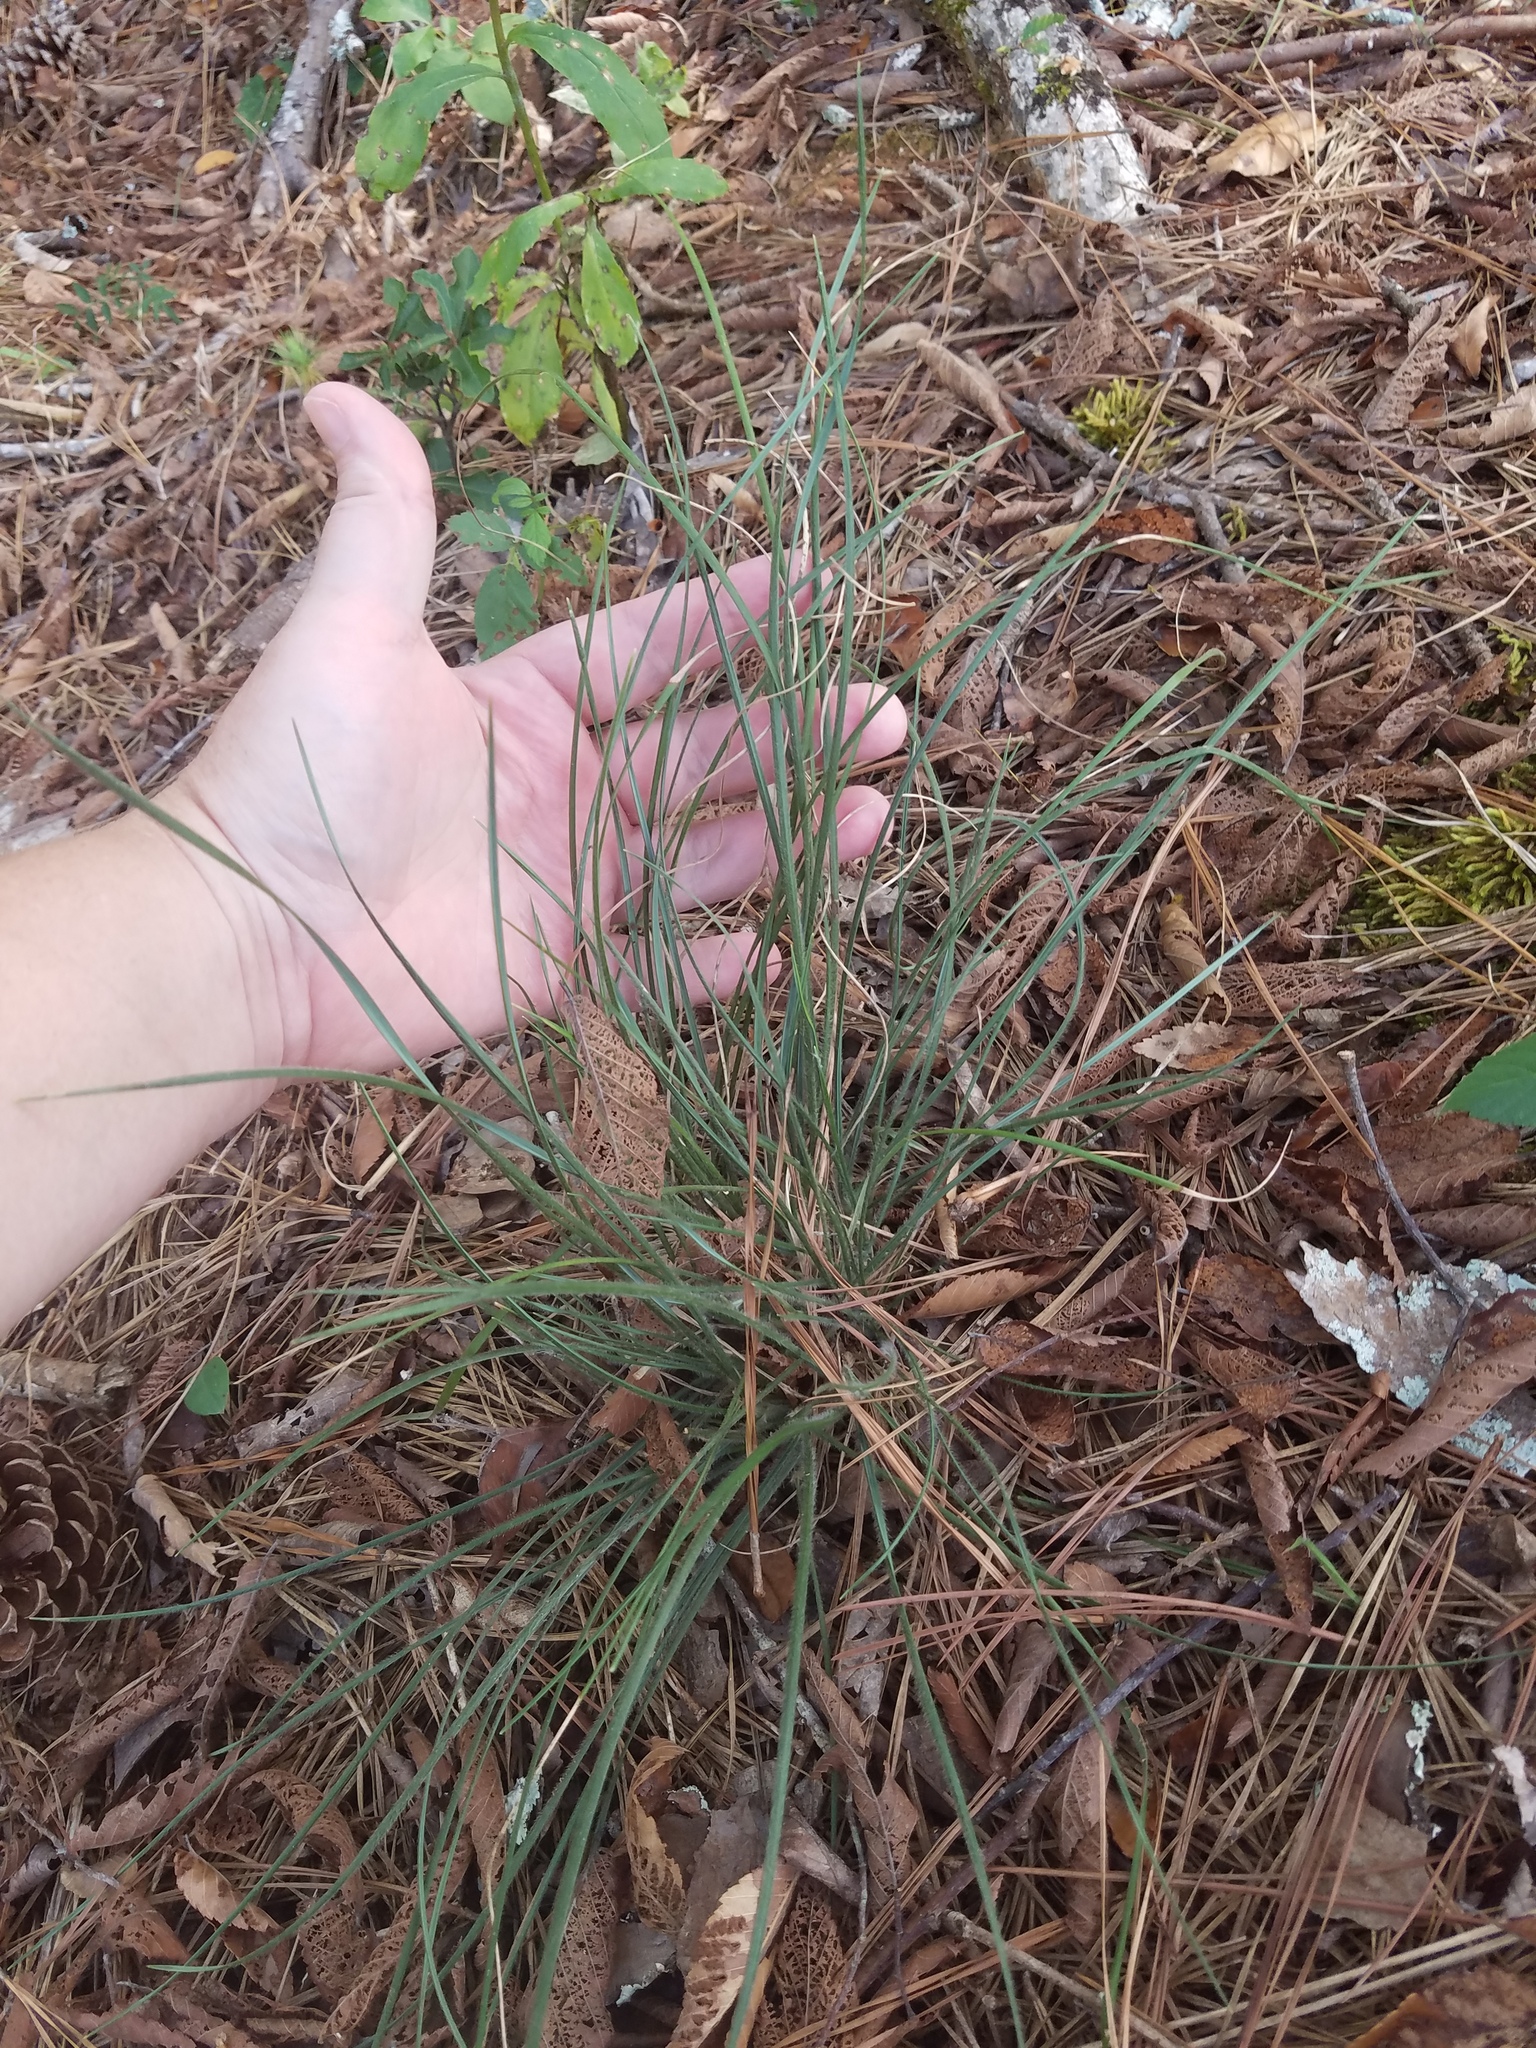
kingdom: Plantae
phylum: Tracheophyta
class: Liliopsida
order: Poales
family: Poaceae
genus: Danthonia
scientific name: Danthonia sericea
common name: Downy danthonia
